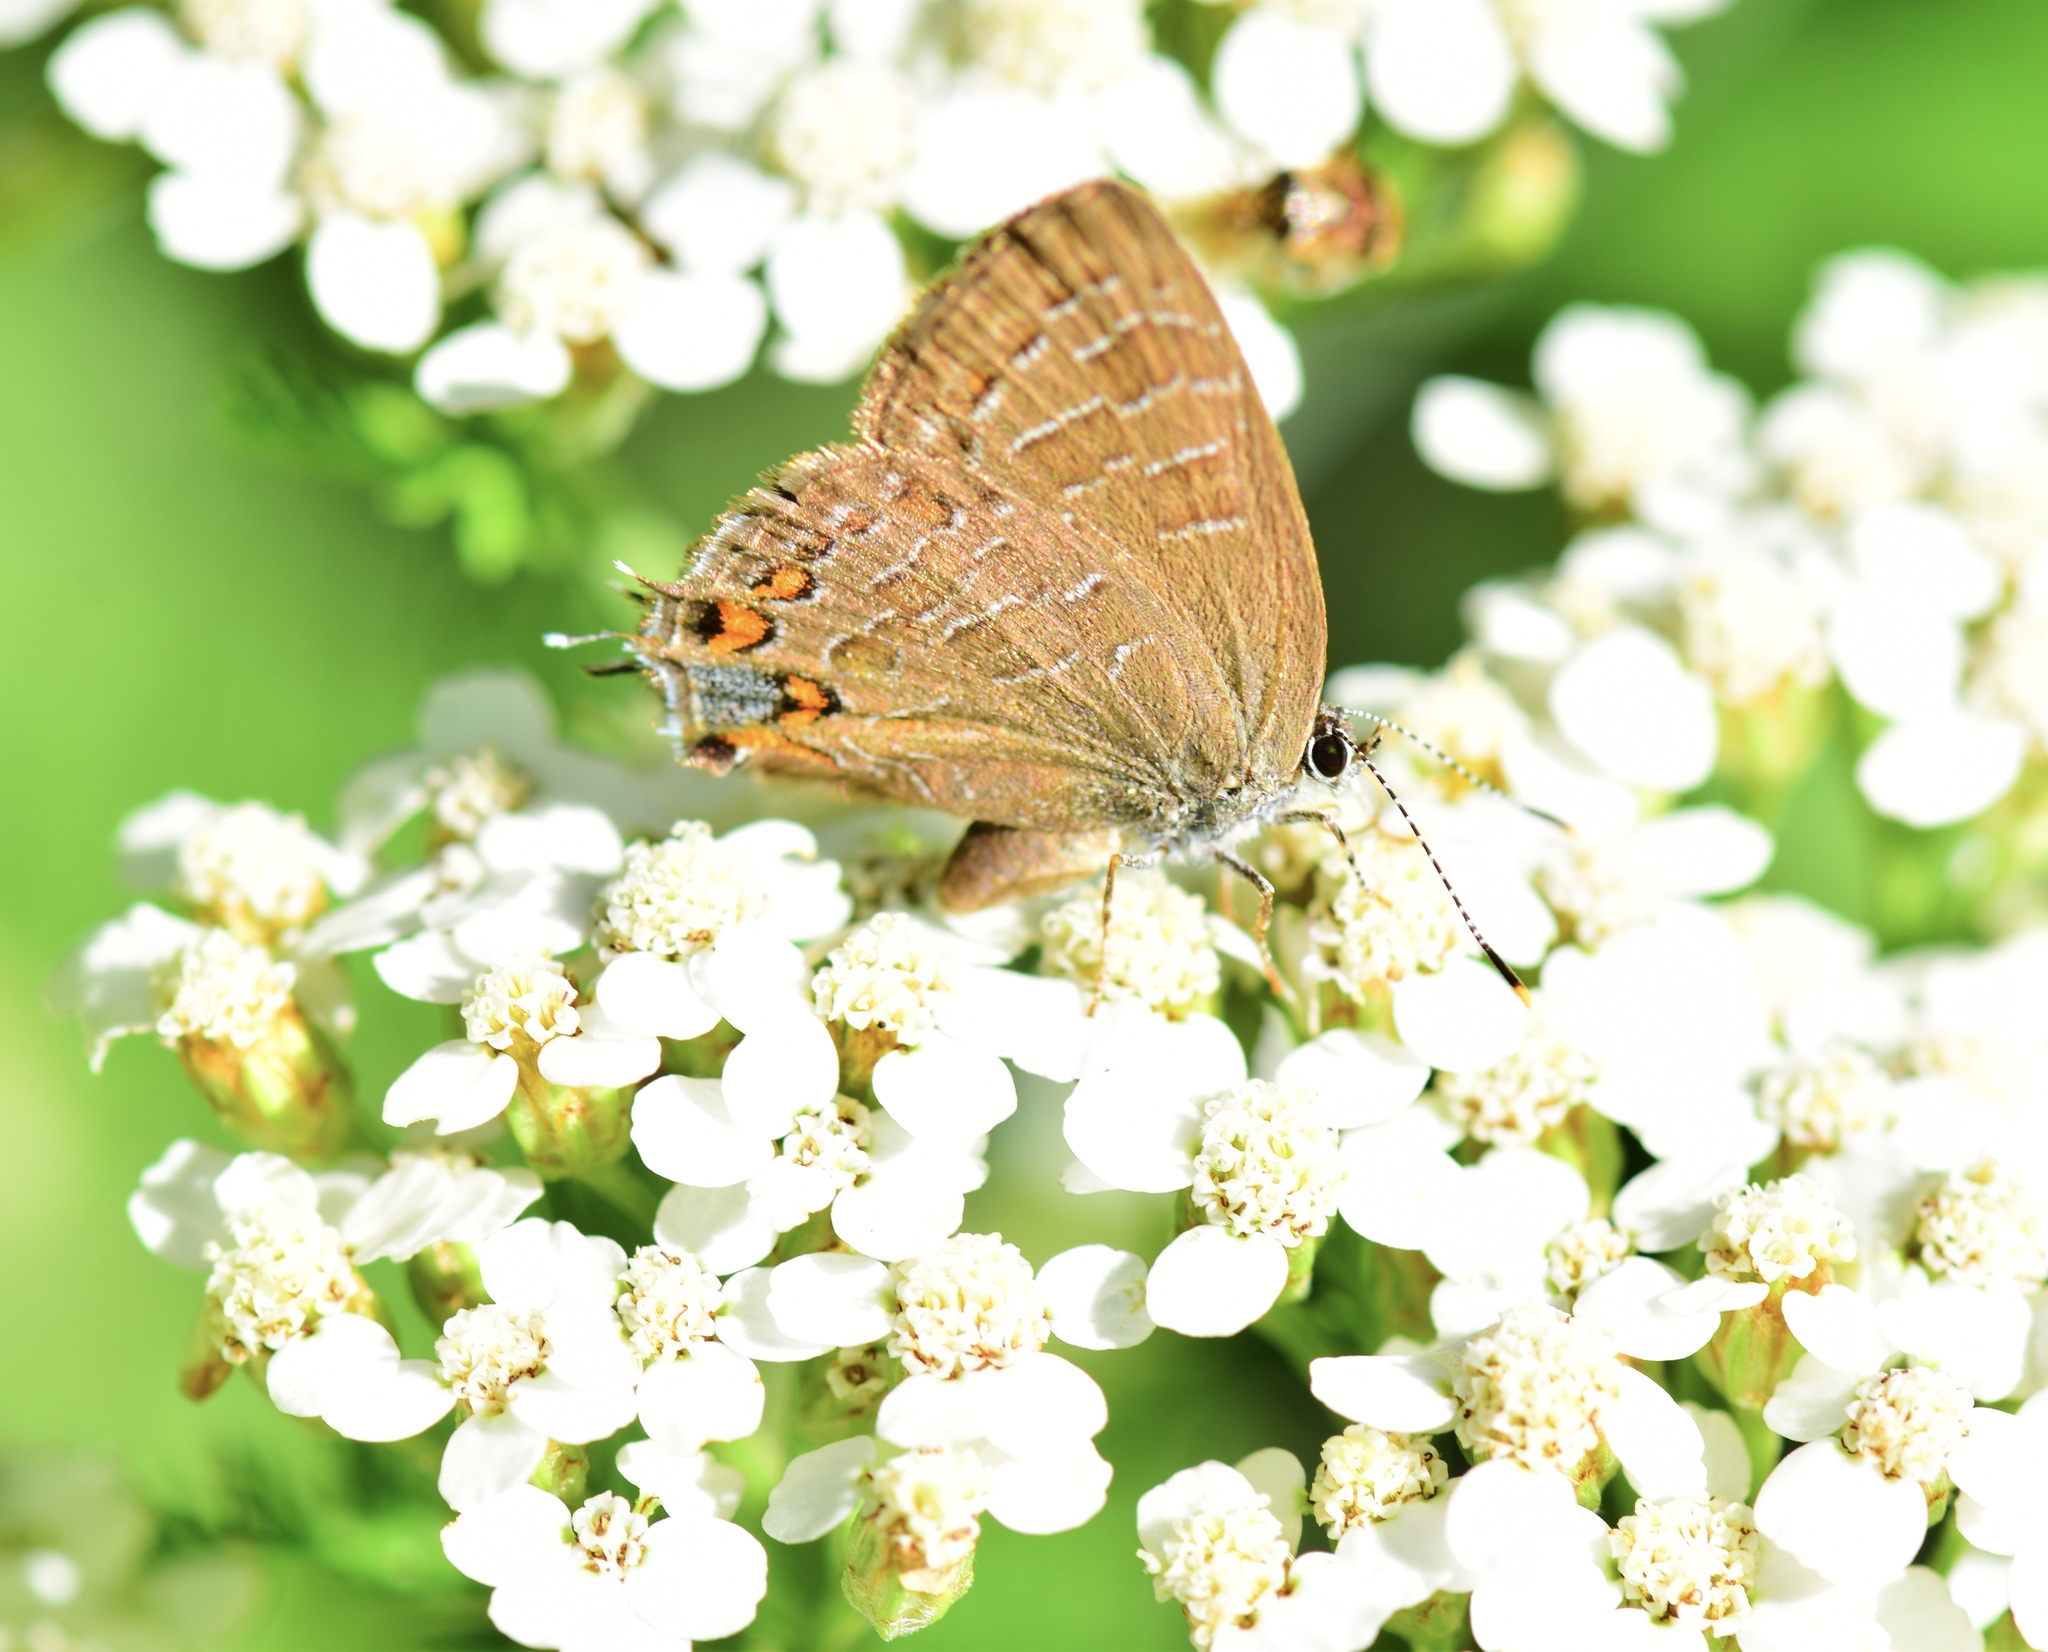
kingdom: Animalia
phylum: Arthropoda
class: Insecta
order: Lepidoptera
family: Lycaenidae
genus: Satyrium
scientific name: Satyrium liparops
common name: Striped hairstreak
